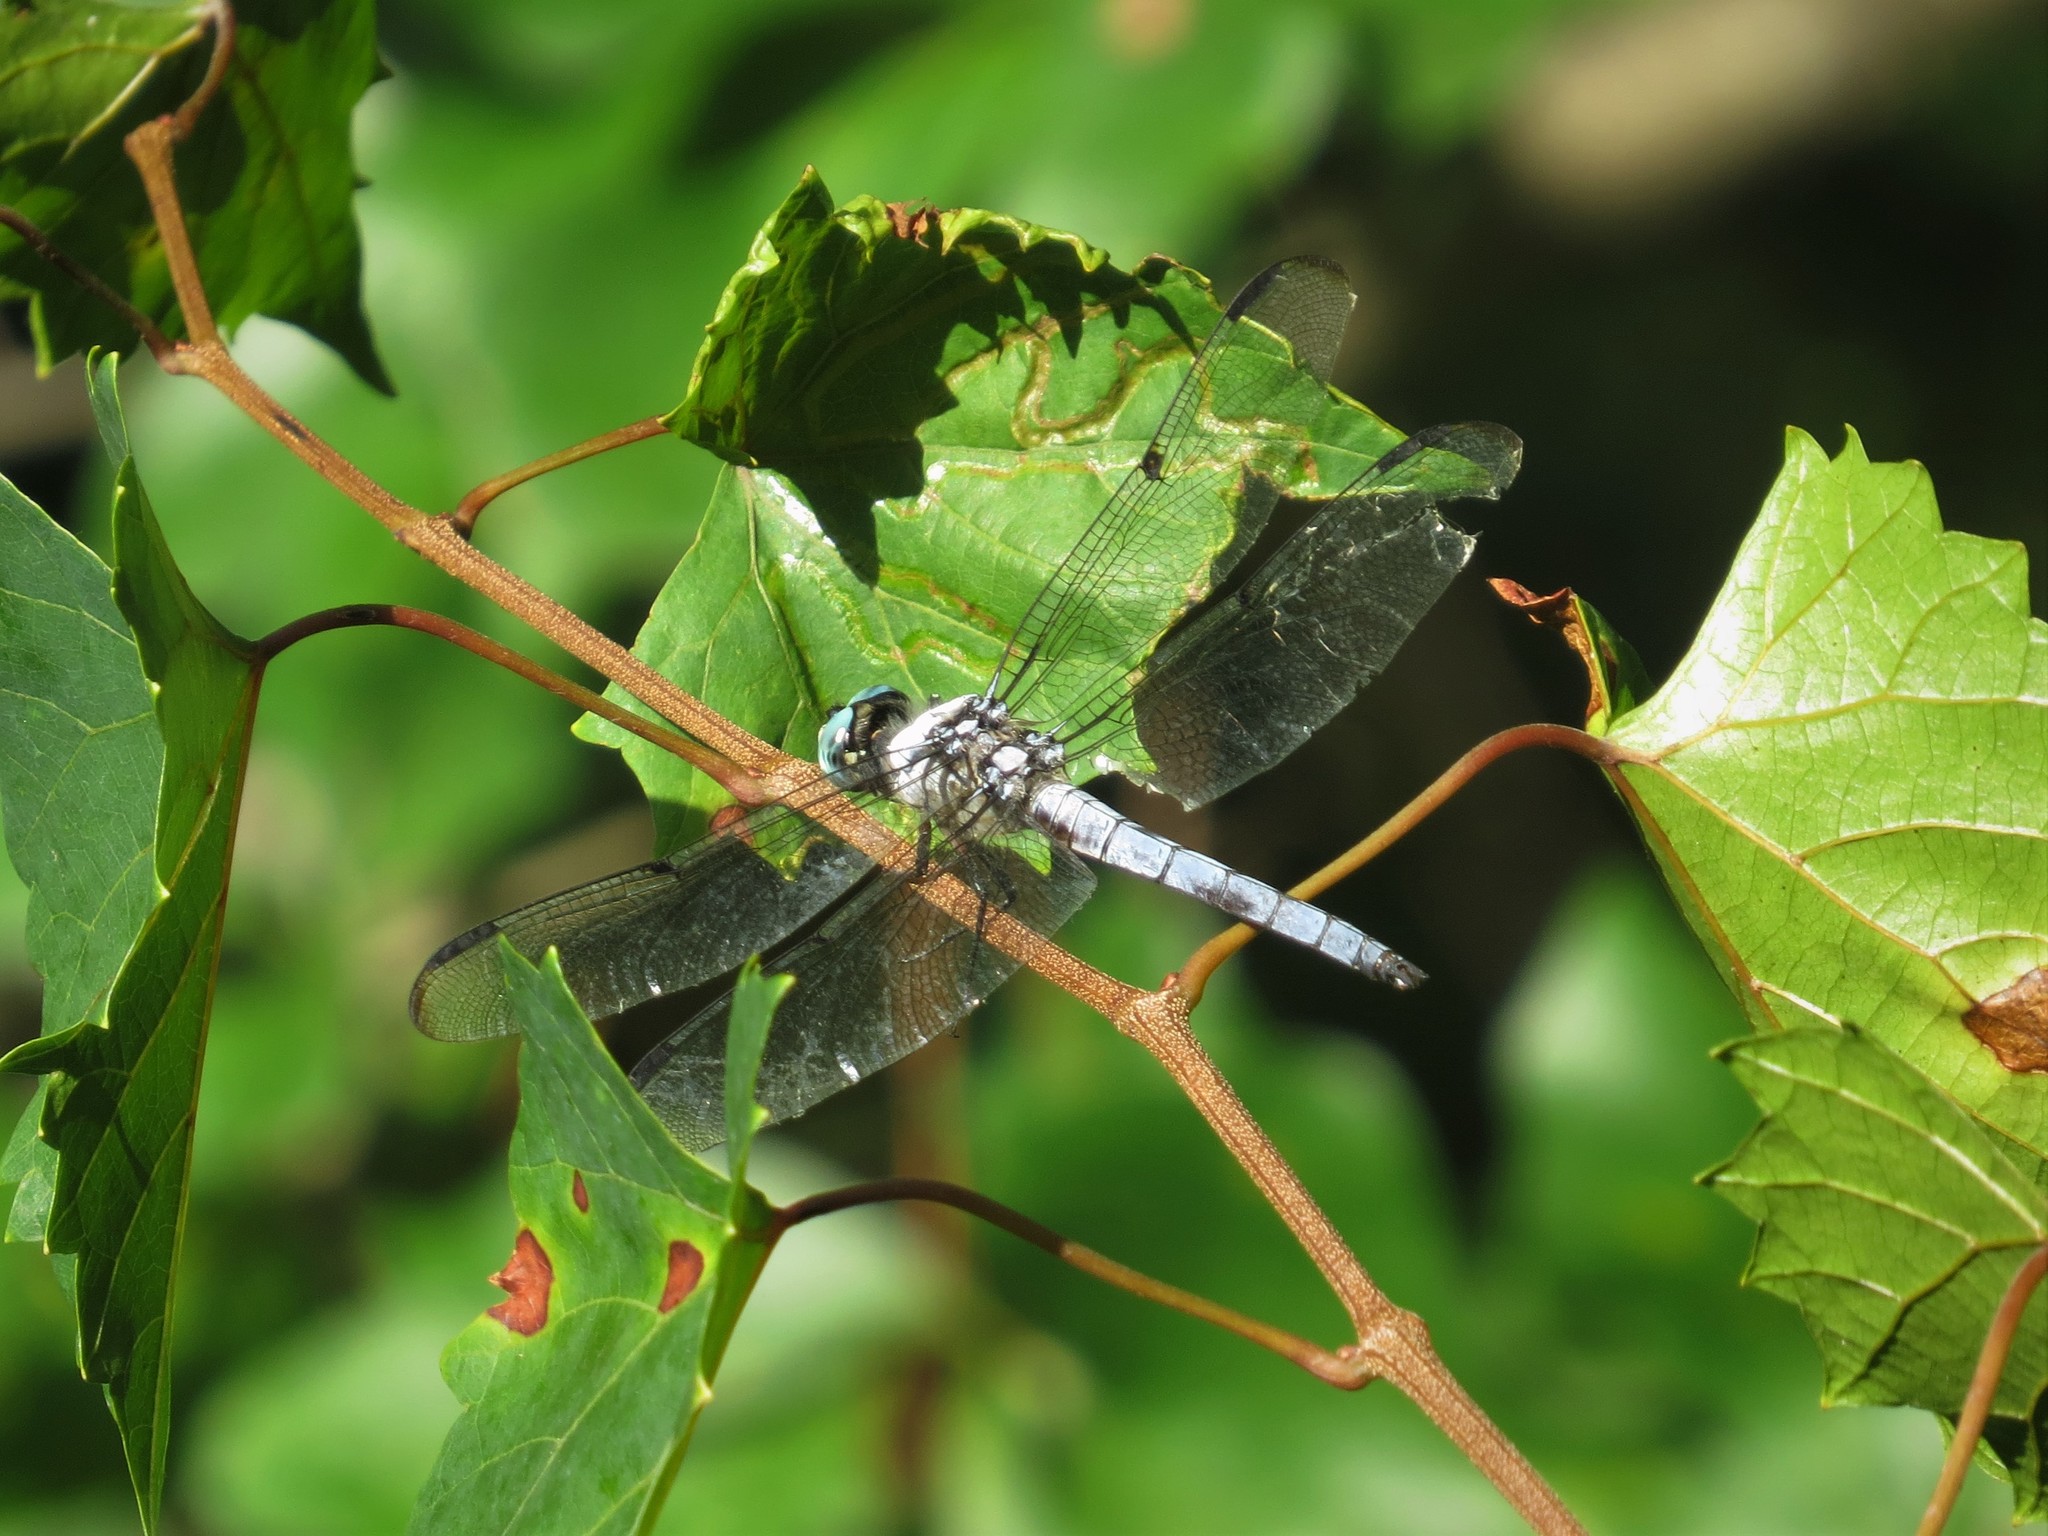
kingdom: Animalia
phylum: Arthropoda
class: Insecta
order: Odonata
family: Libellulidae
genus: Libellula
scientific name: Libellula vibrans
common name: Great blue skimmer
